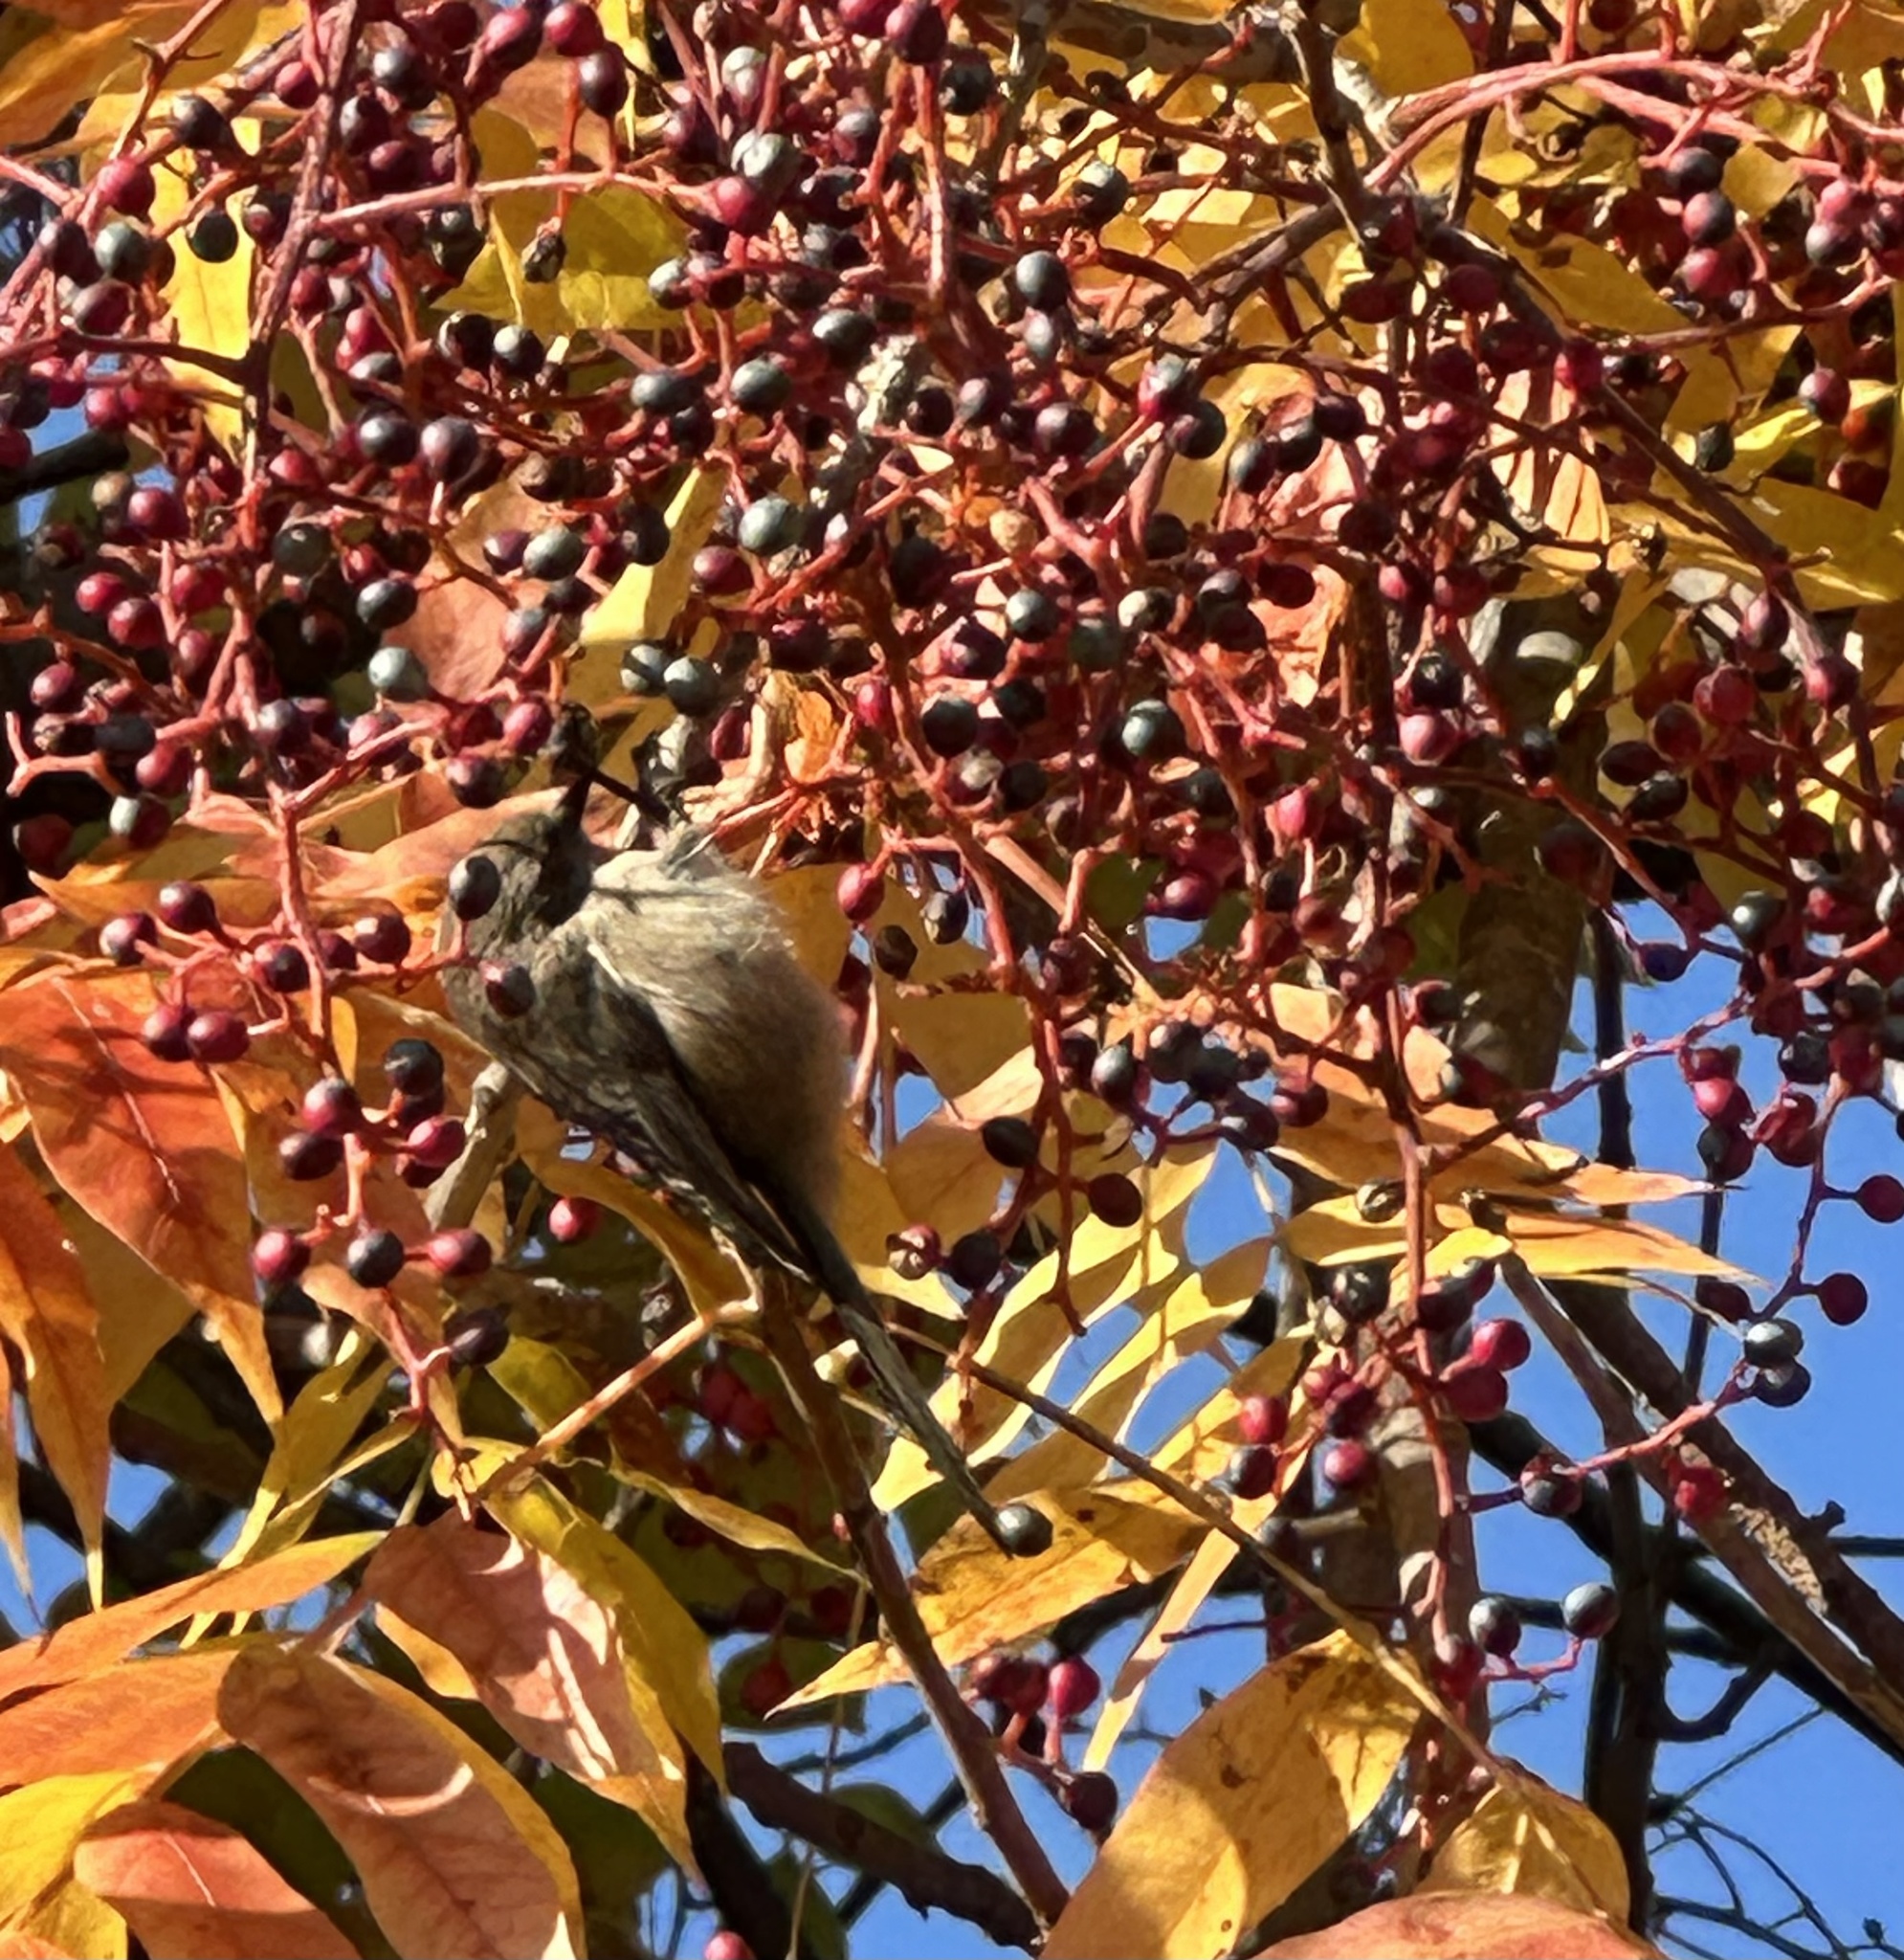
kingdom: Animalia
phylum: Chordata
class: Aves
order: Passeriformes
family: Aegithalidae
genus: Psaltriparus
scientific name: Psaltriparus minimus
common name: American bushtit
